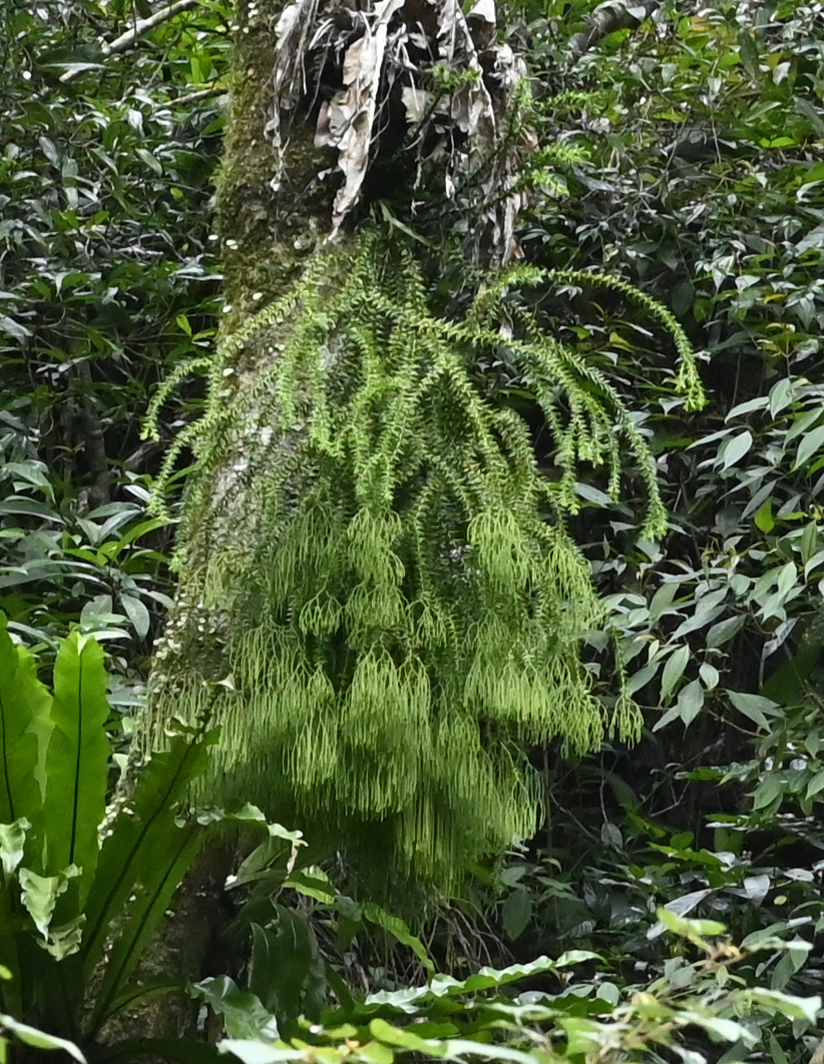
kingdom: Plantae
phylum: Tracheophyta
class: Lycopodiopsida
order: Lycopodiales
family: Lycopodiaceae
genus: Phlegmariurus
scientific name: Phlegmariurus phlegmaria
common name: Coarse tassel-fern
